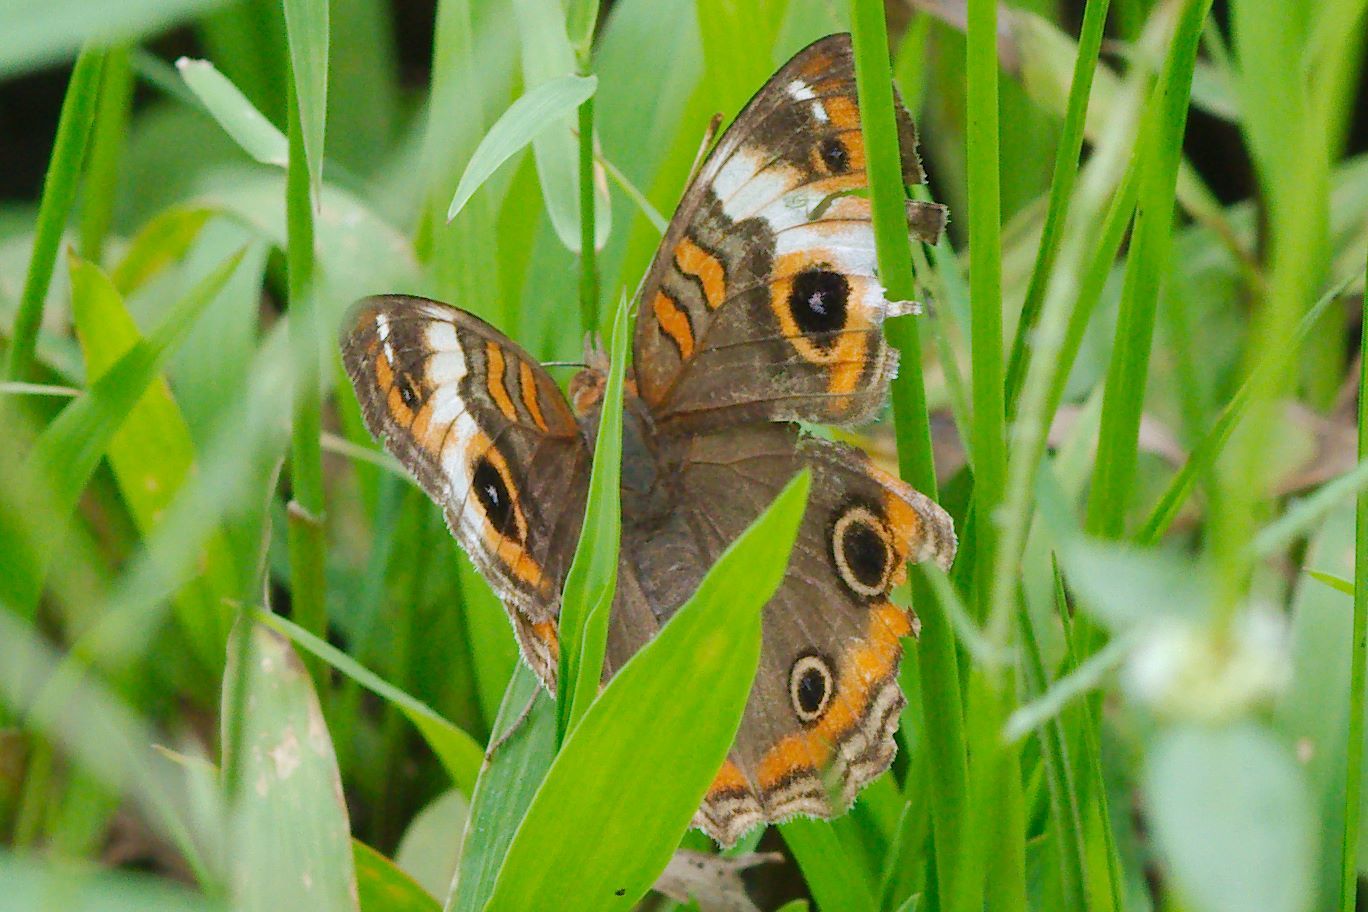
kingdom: Animalia
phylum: Arthropoda
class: Insecta
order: Lepidoptera
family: Nymphalidae
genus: Junonia
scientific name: Junonia lavinia
